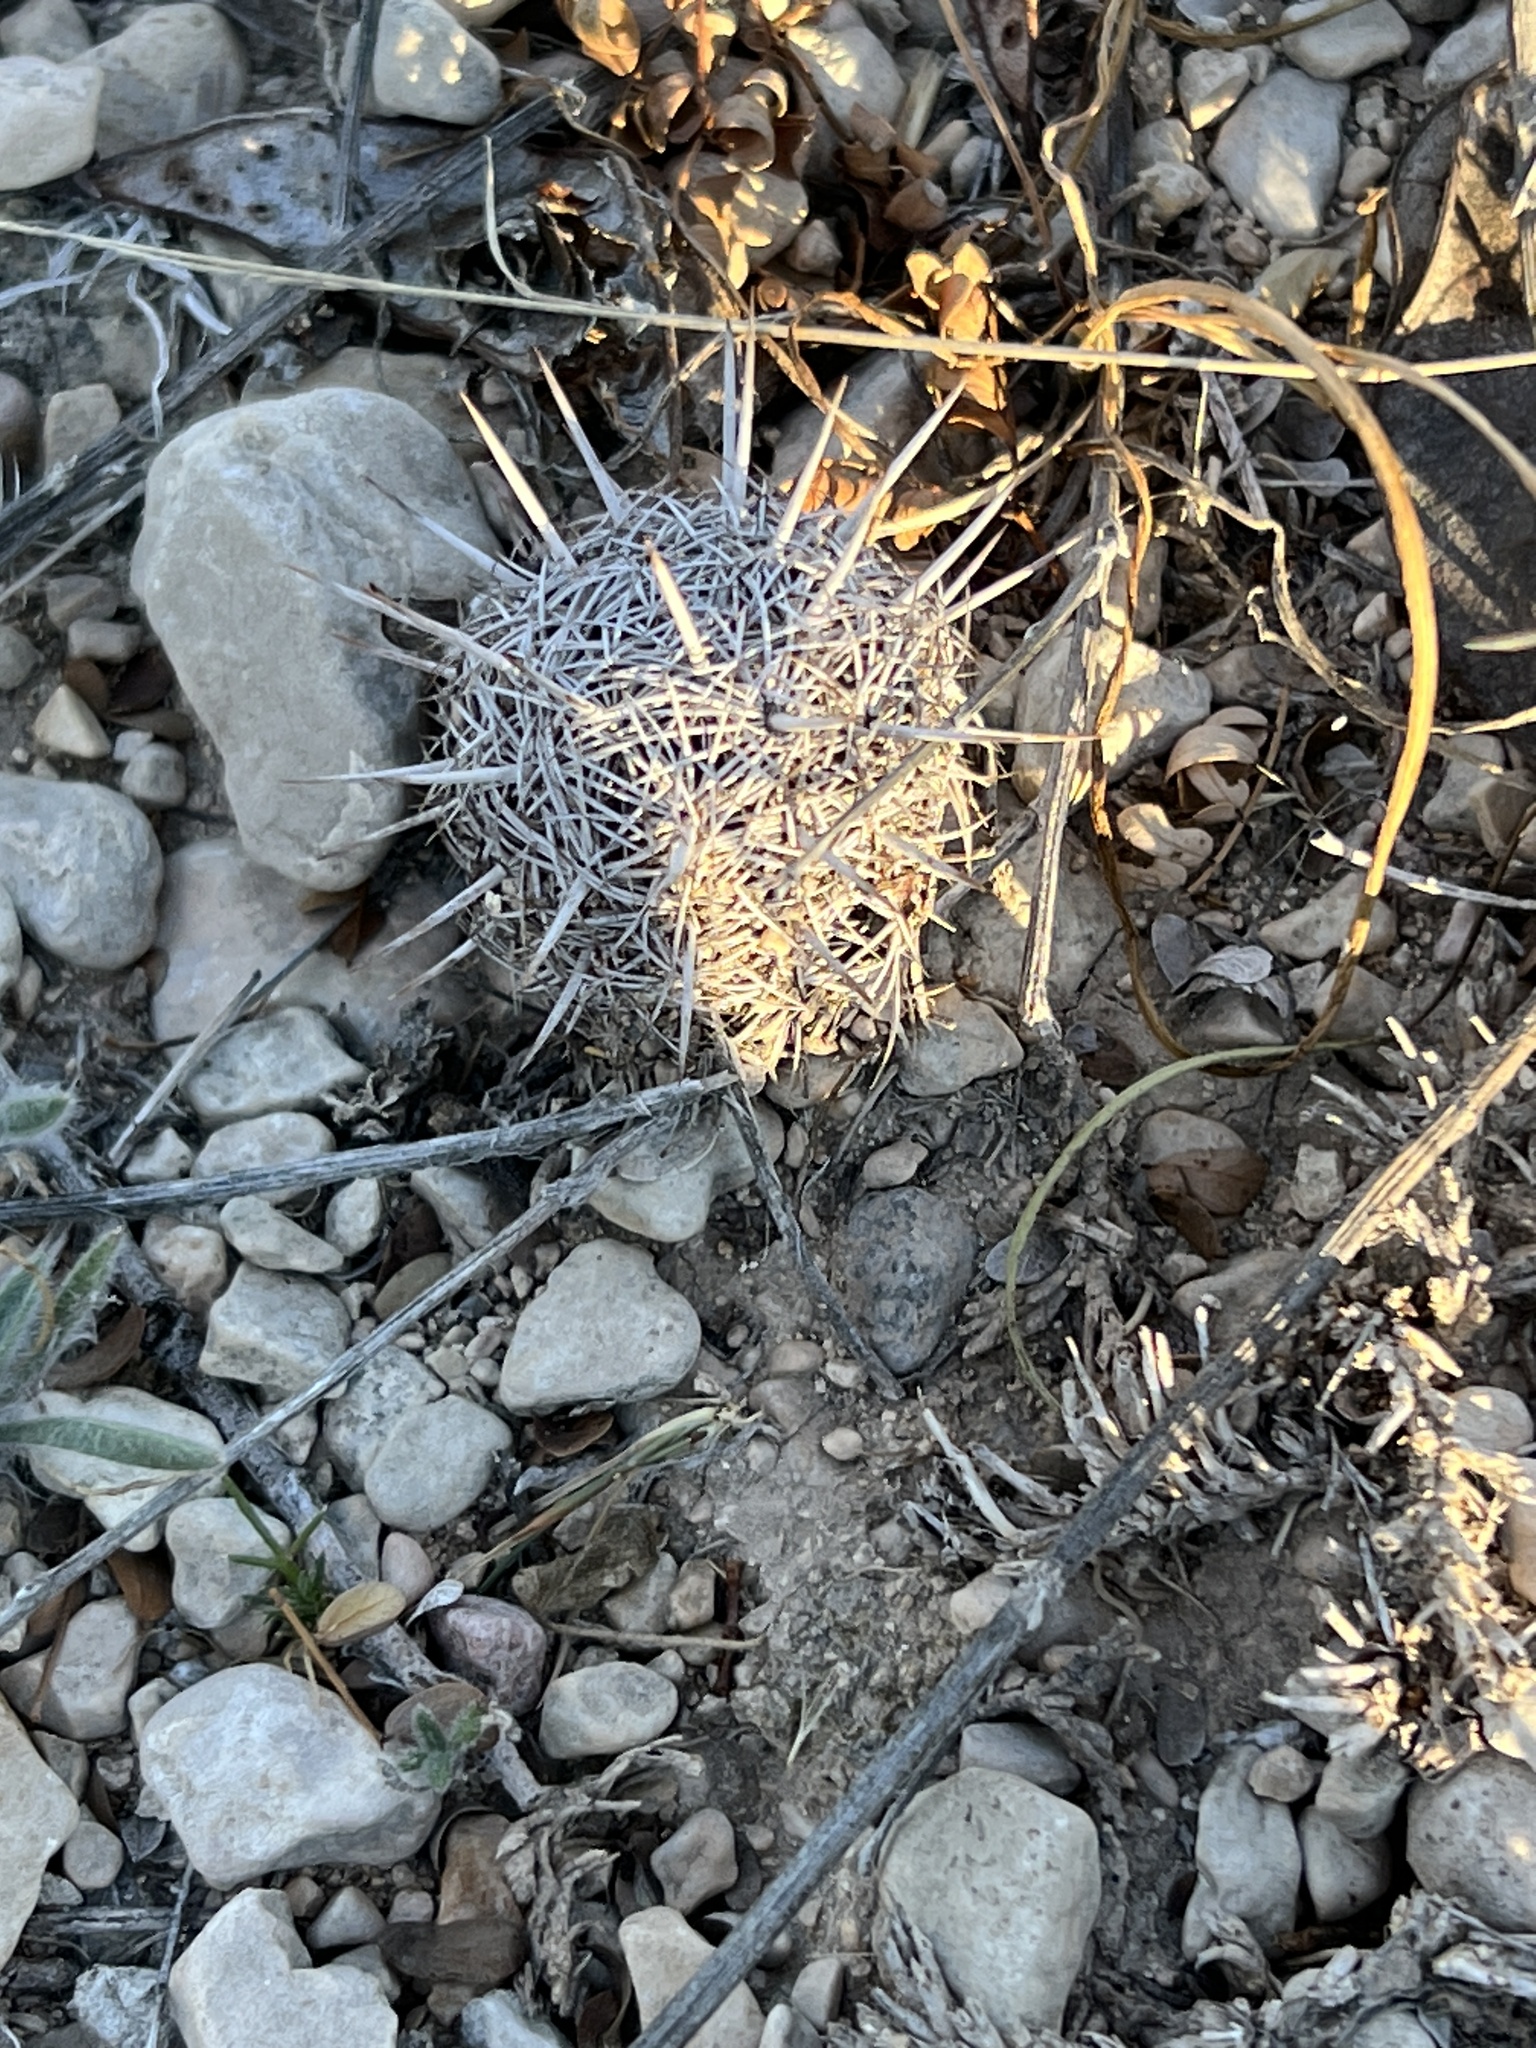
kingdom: Plantae
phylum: Tracheophyta
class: Magnoliopsida
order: Caryophyllales
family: Cactaceae
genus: Coryphantha
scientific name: Coryphantha echinus
